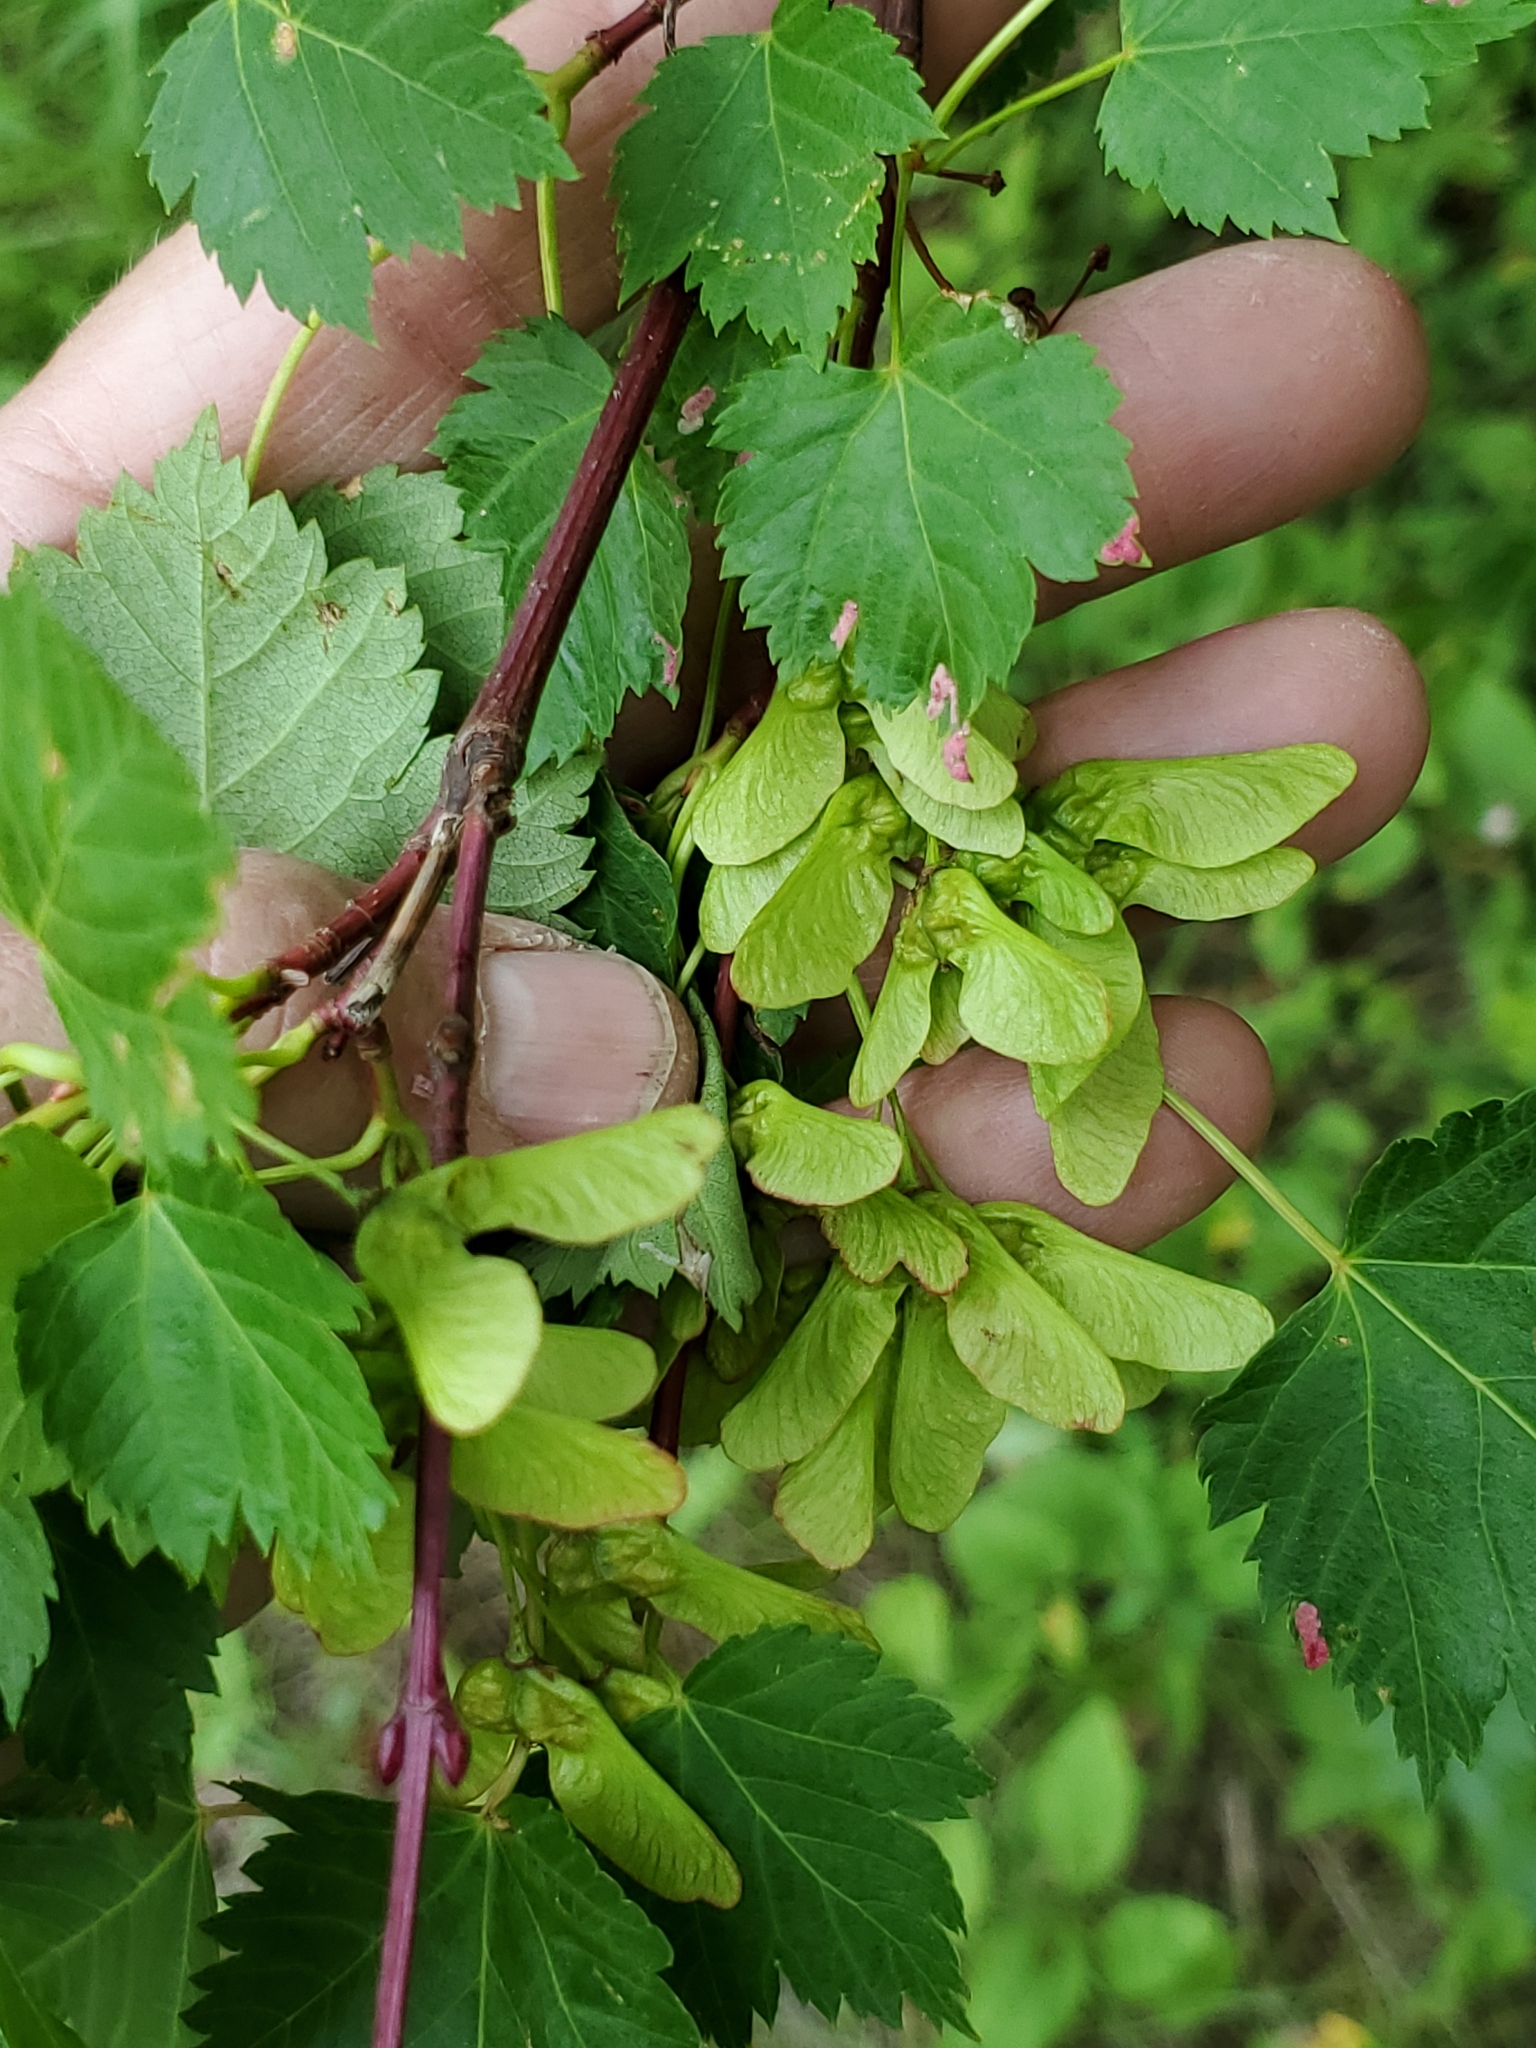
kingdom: Plantae
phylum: Tracheophyta
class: Magnoliopsida
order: Sapindales
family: Sapindaceae
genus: Acer
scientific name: Acer glabrum
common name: Rocky mountain maple
